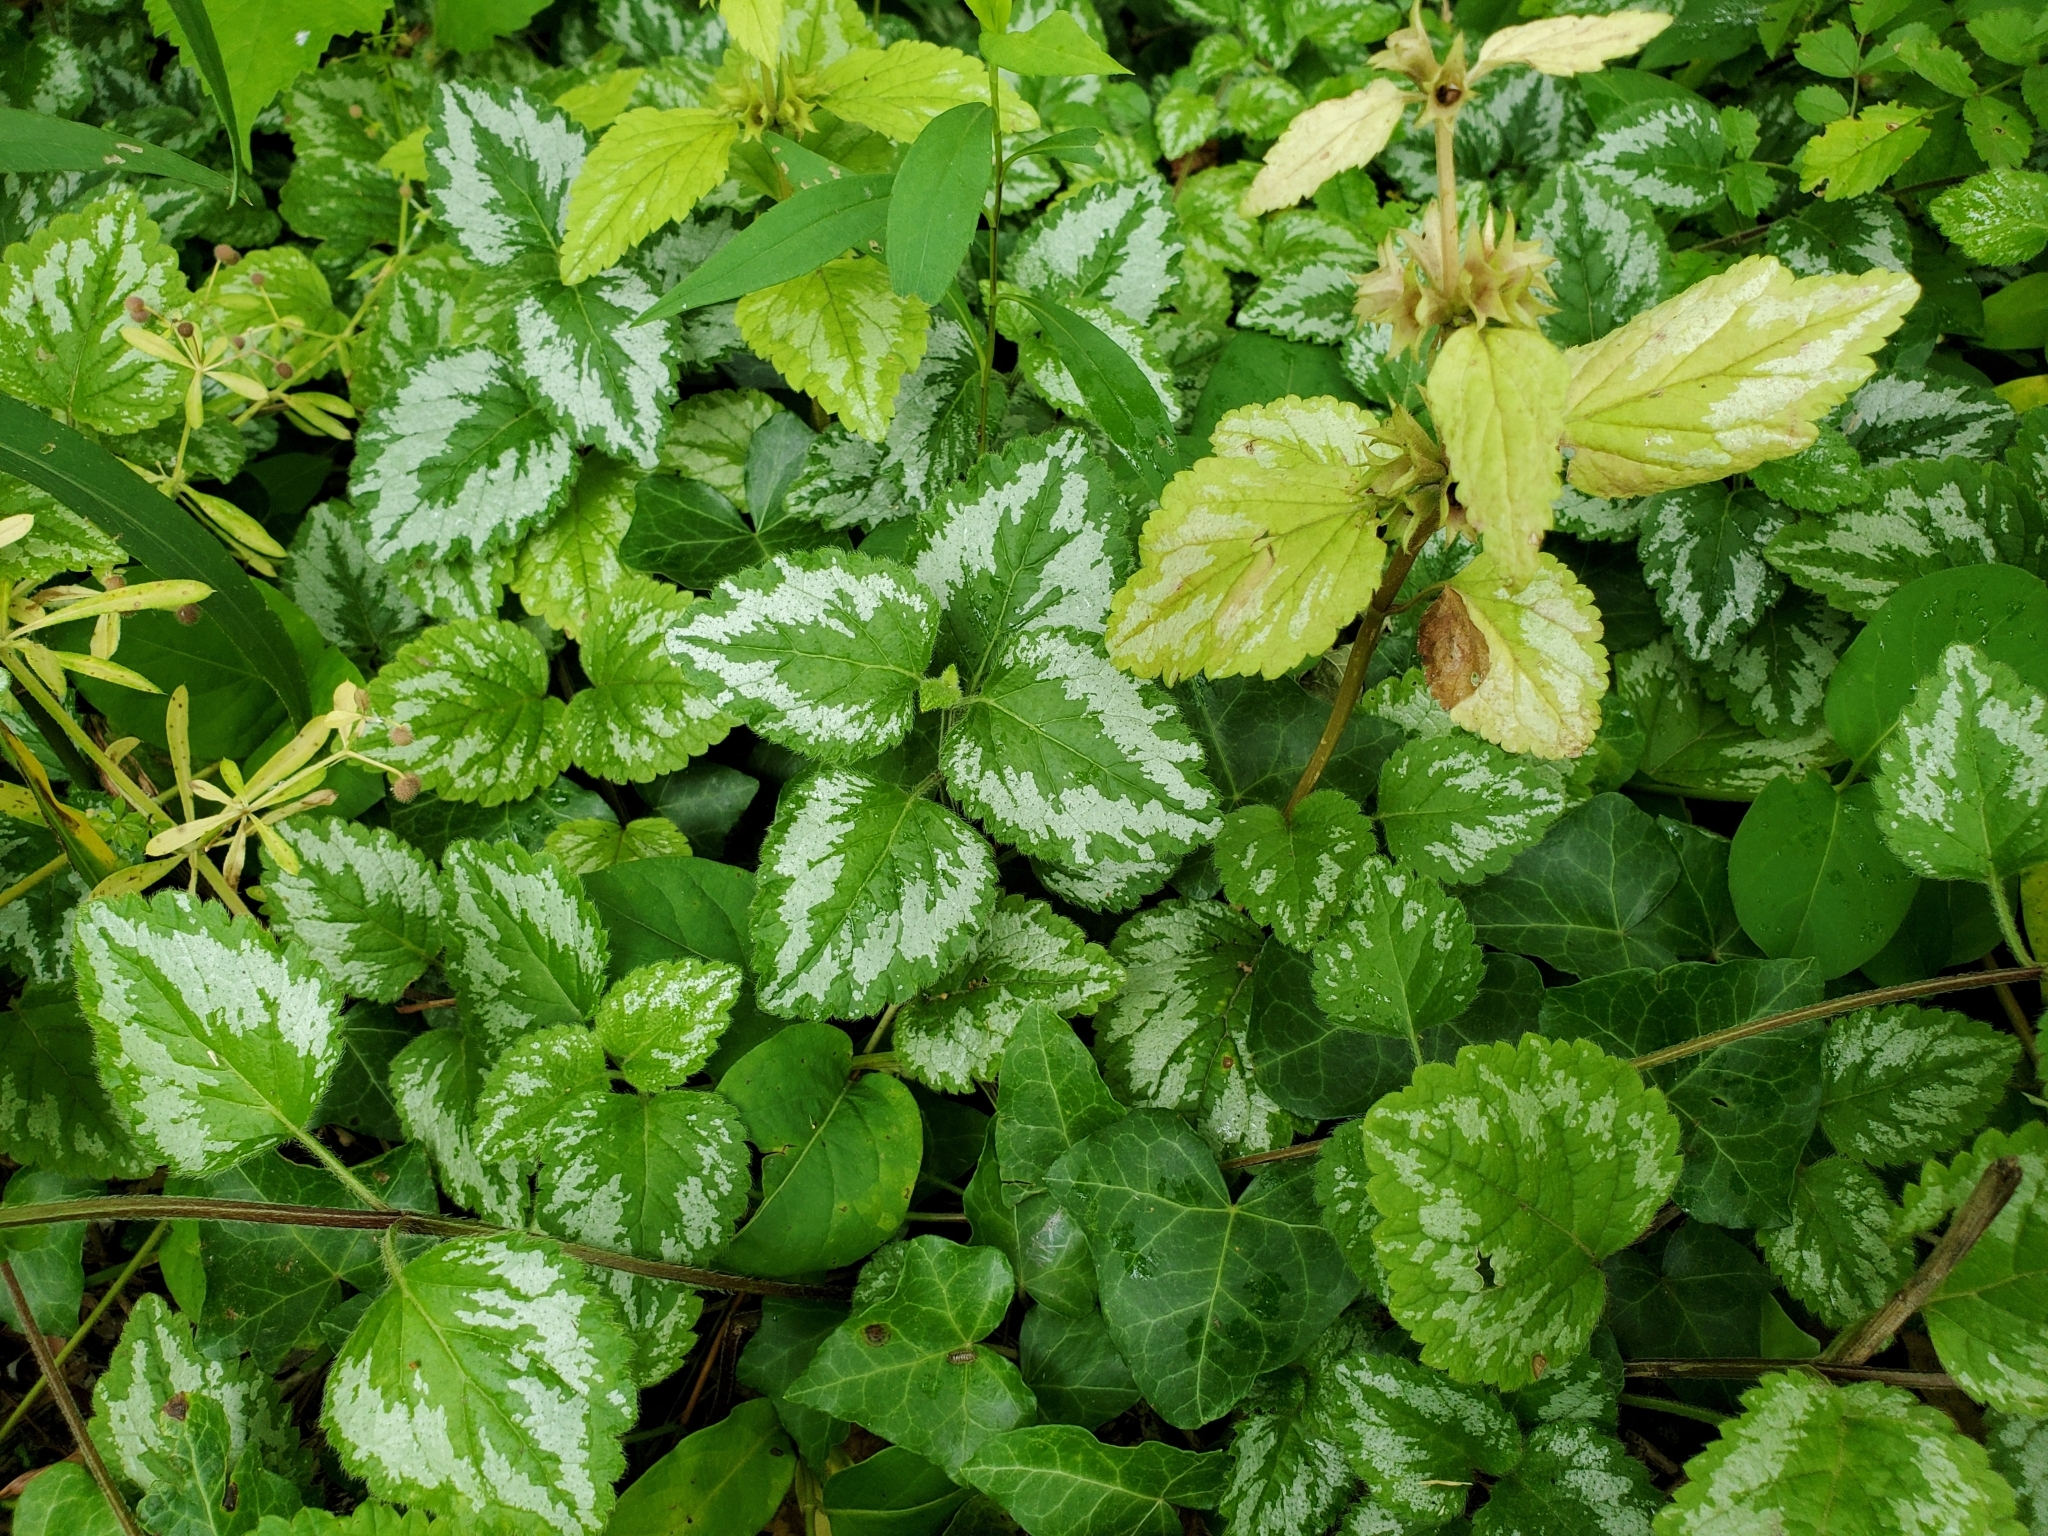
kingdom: Plantae
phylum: Tracheophyta
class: Magnoliopsida
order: Lamiales
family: Lamiaceae
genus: Lamium
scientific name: Lamium galeobdolon
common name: Yellow archangel
